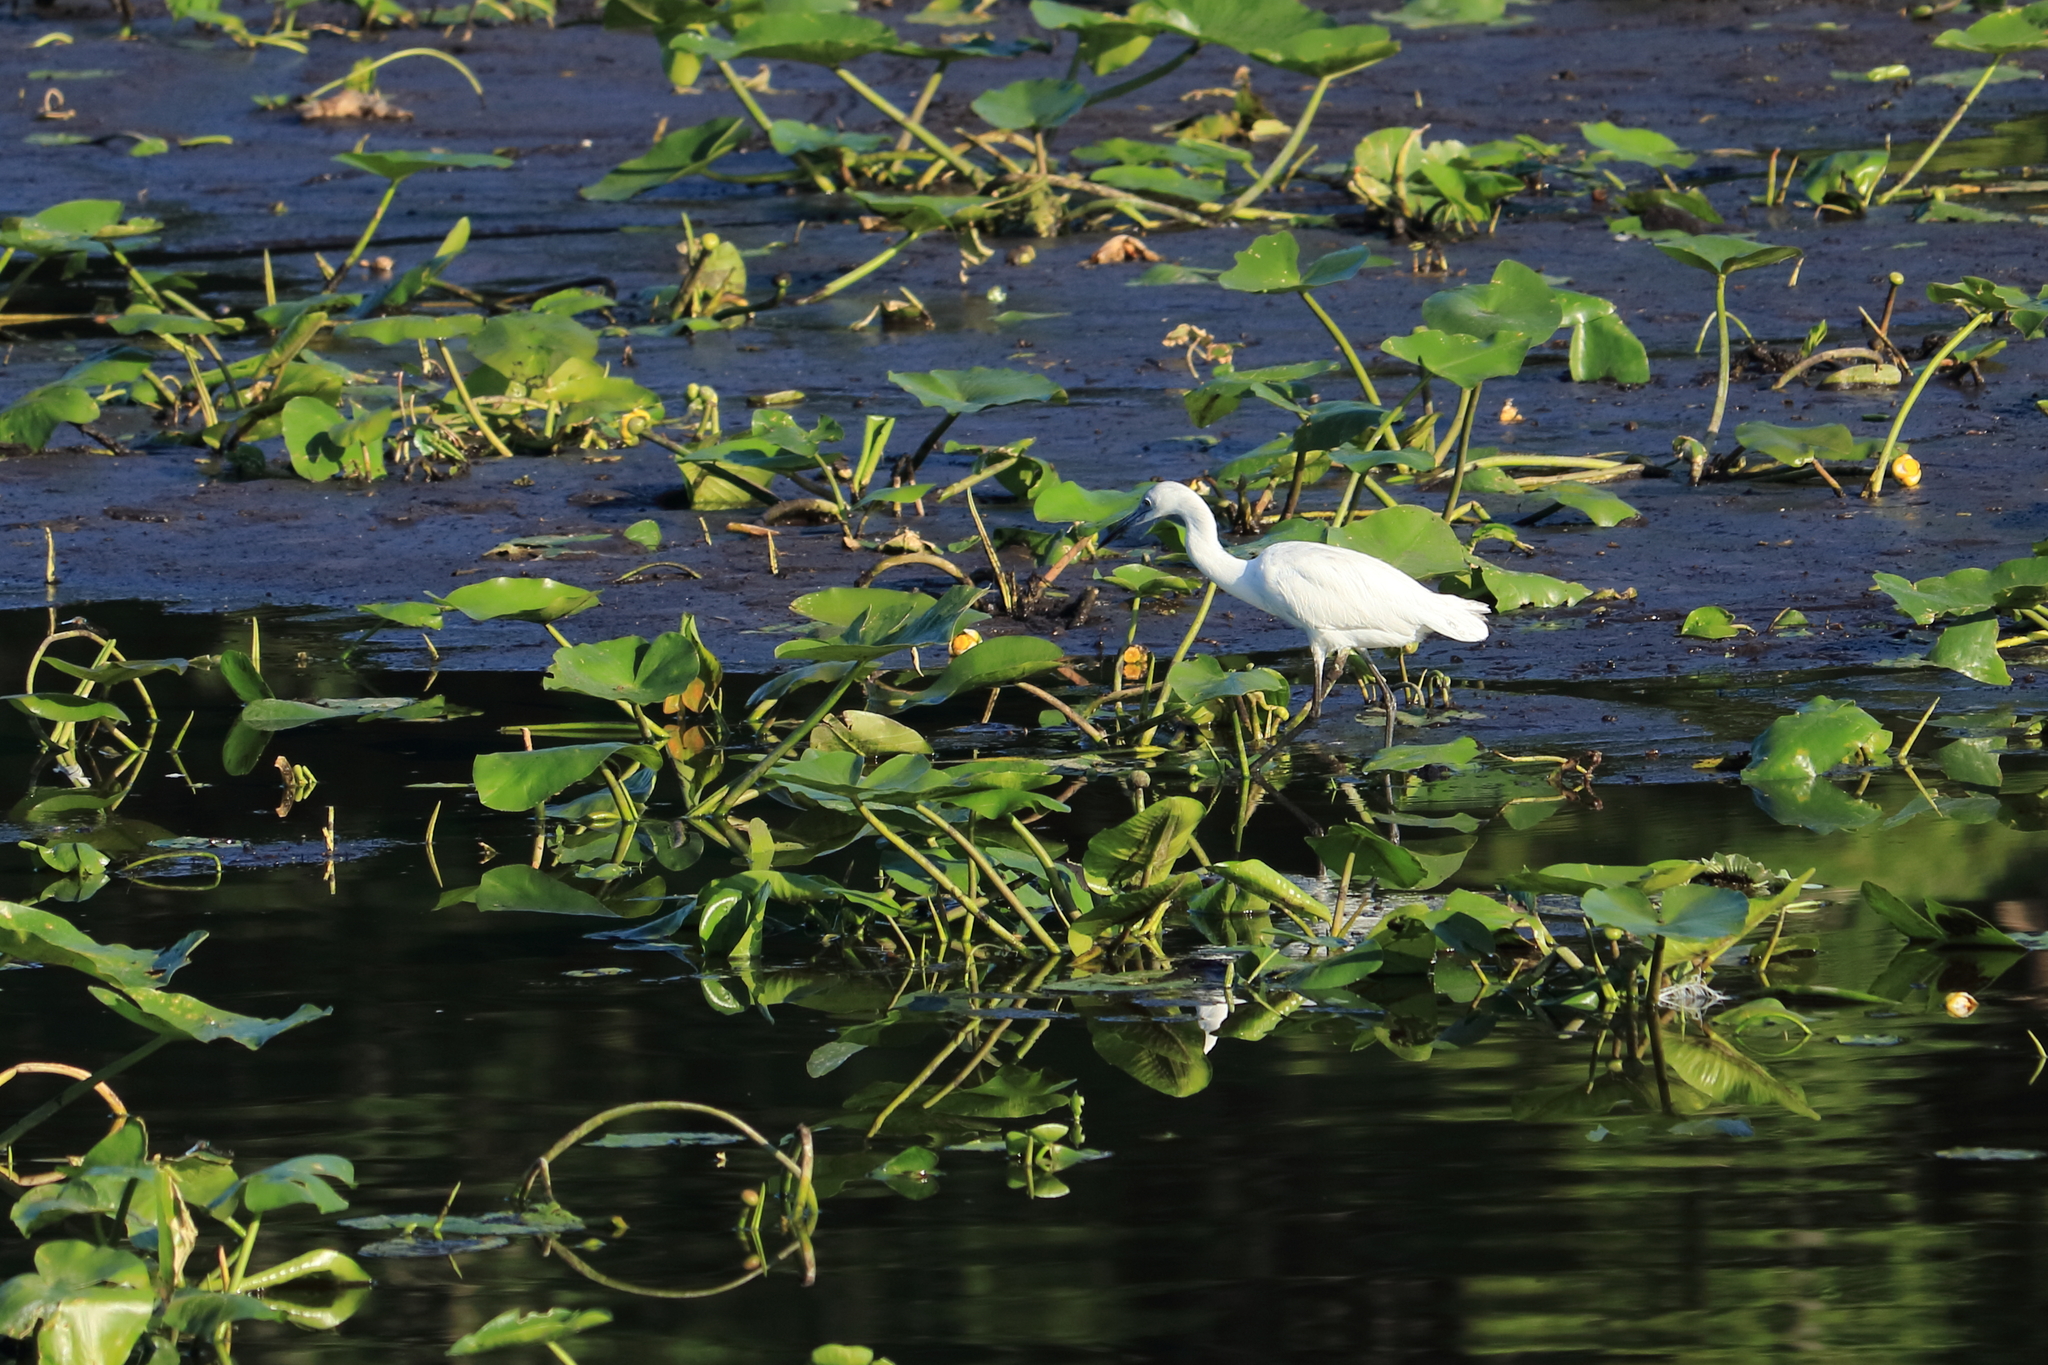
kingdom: Animalia
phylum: Chordata
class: Aves
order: Pelecaniformes
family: Ardeidae
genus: Egretta
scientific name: Egretta caerulea
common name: Little blue heron
